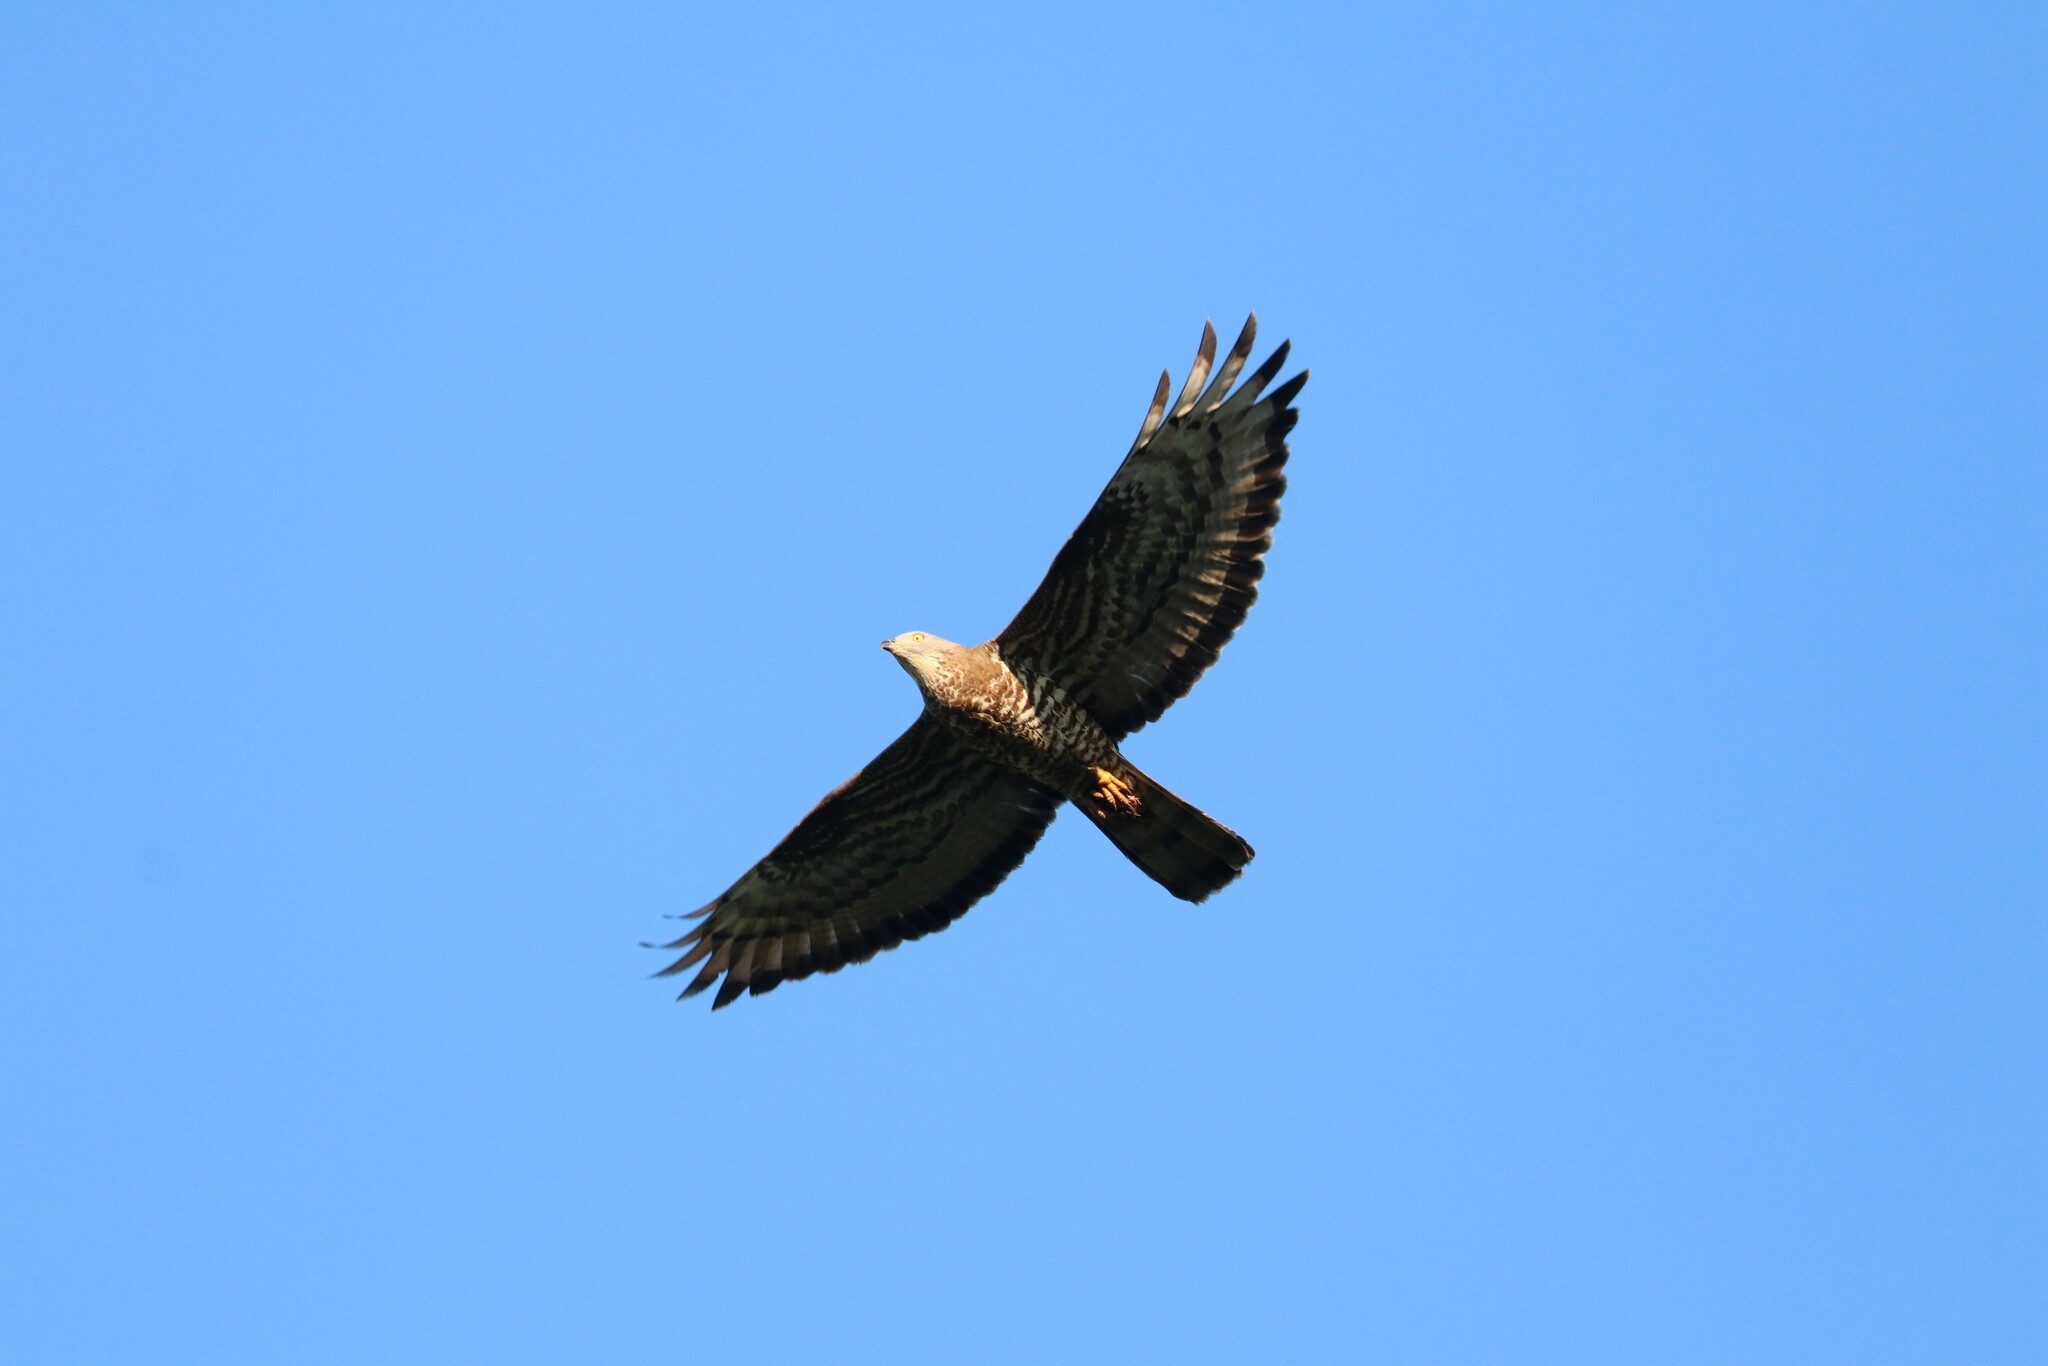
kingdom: Animalia
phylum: Chordata
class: Aves
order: Accipitriformes
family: Accipitridae
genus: Pernis
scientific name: Pernis apivorus
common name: European honey buzzard
